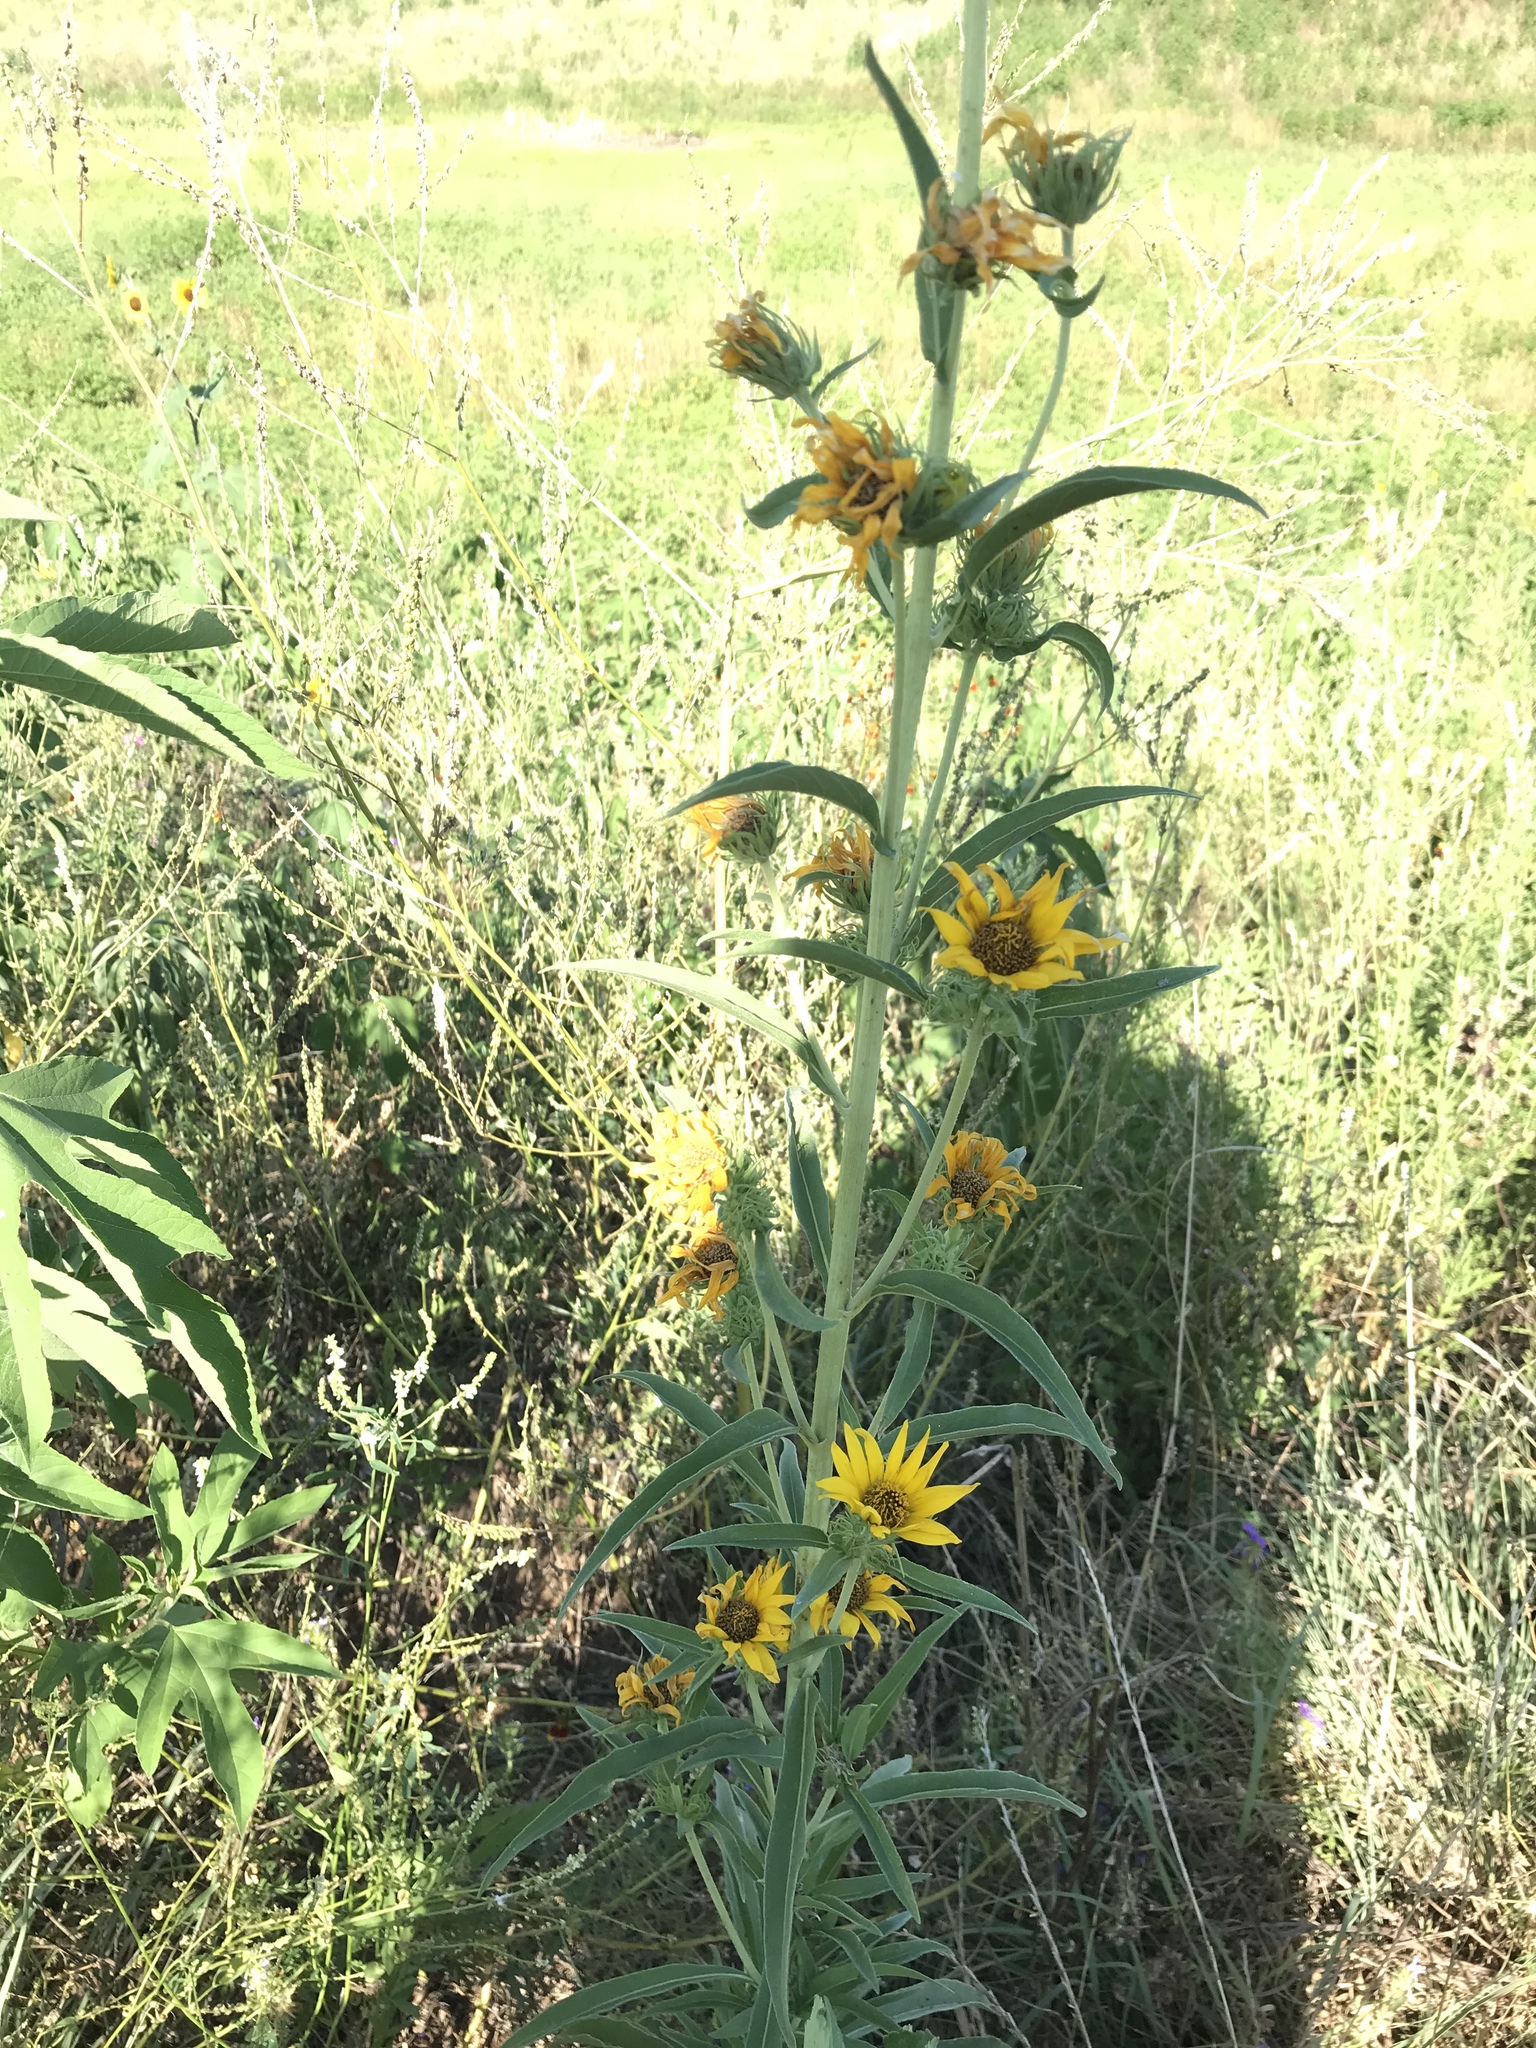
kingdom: Plantae
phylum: Tracheophyta
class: Magnoliopsida
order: Asterales
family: Asteraceae
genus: Helianthus
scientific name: Helianthus maximiliani
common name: Maximilian's sunflower
